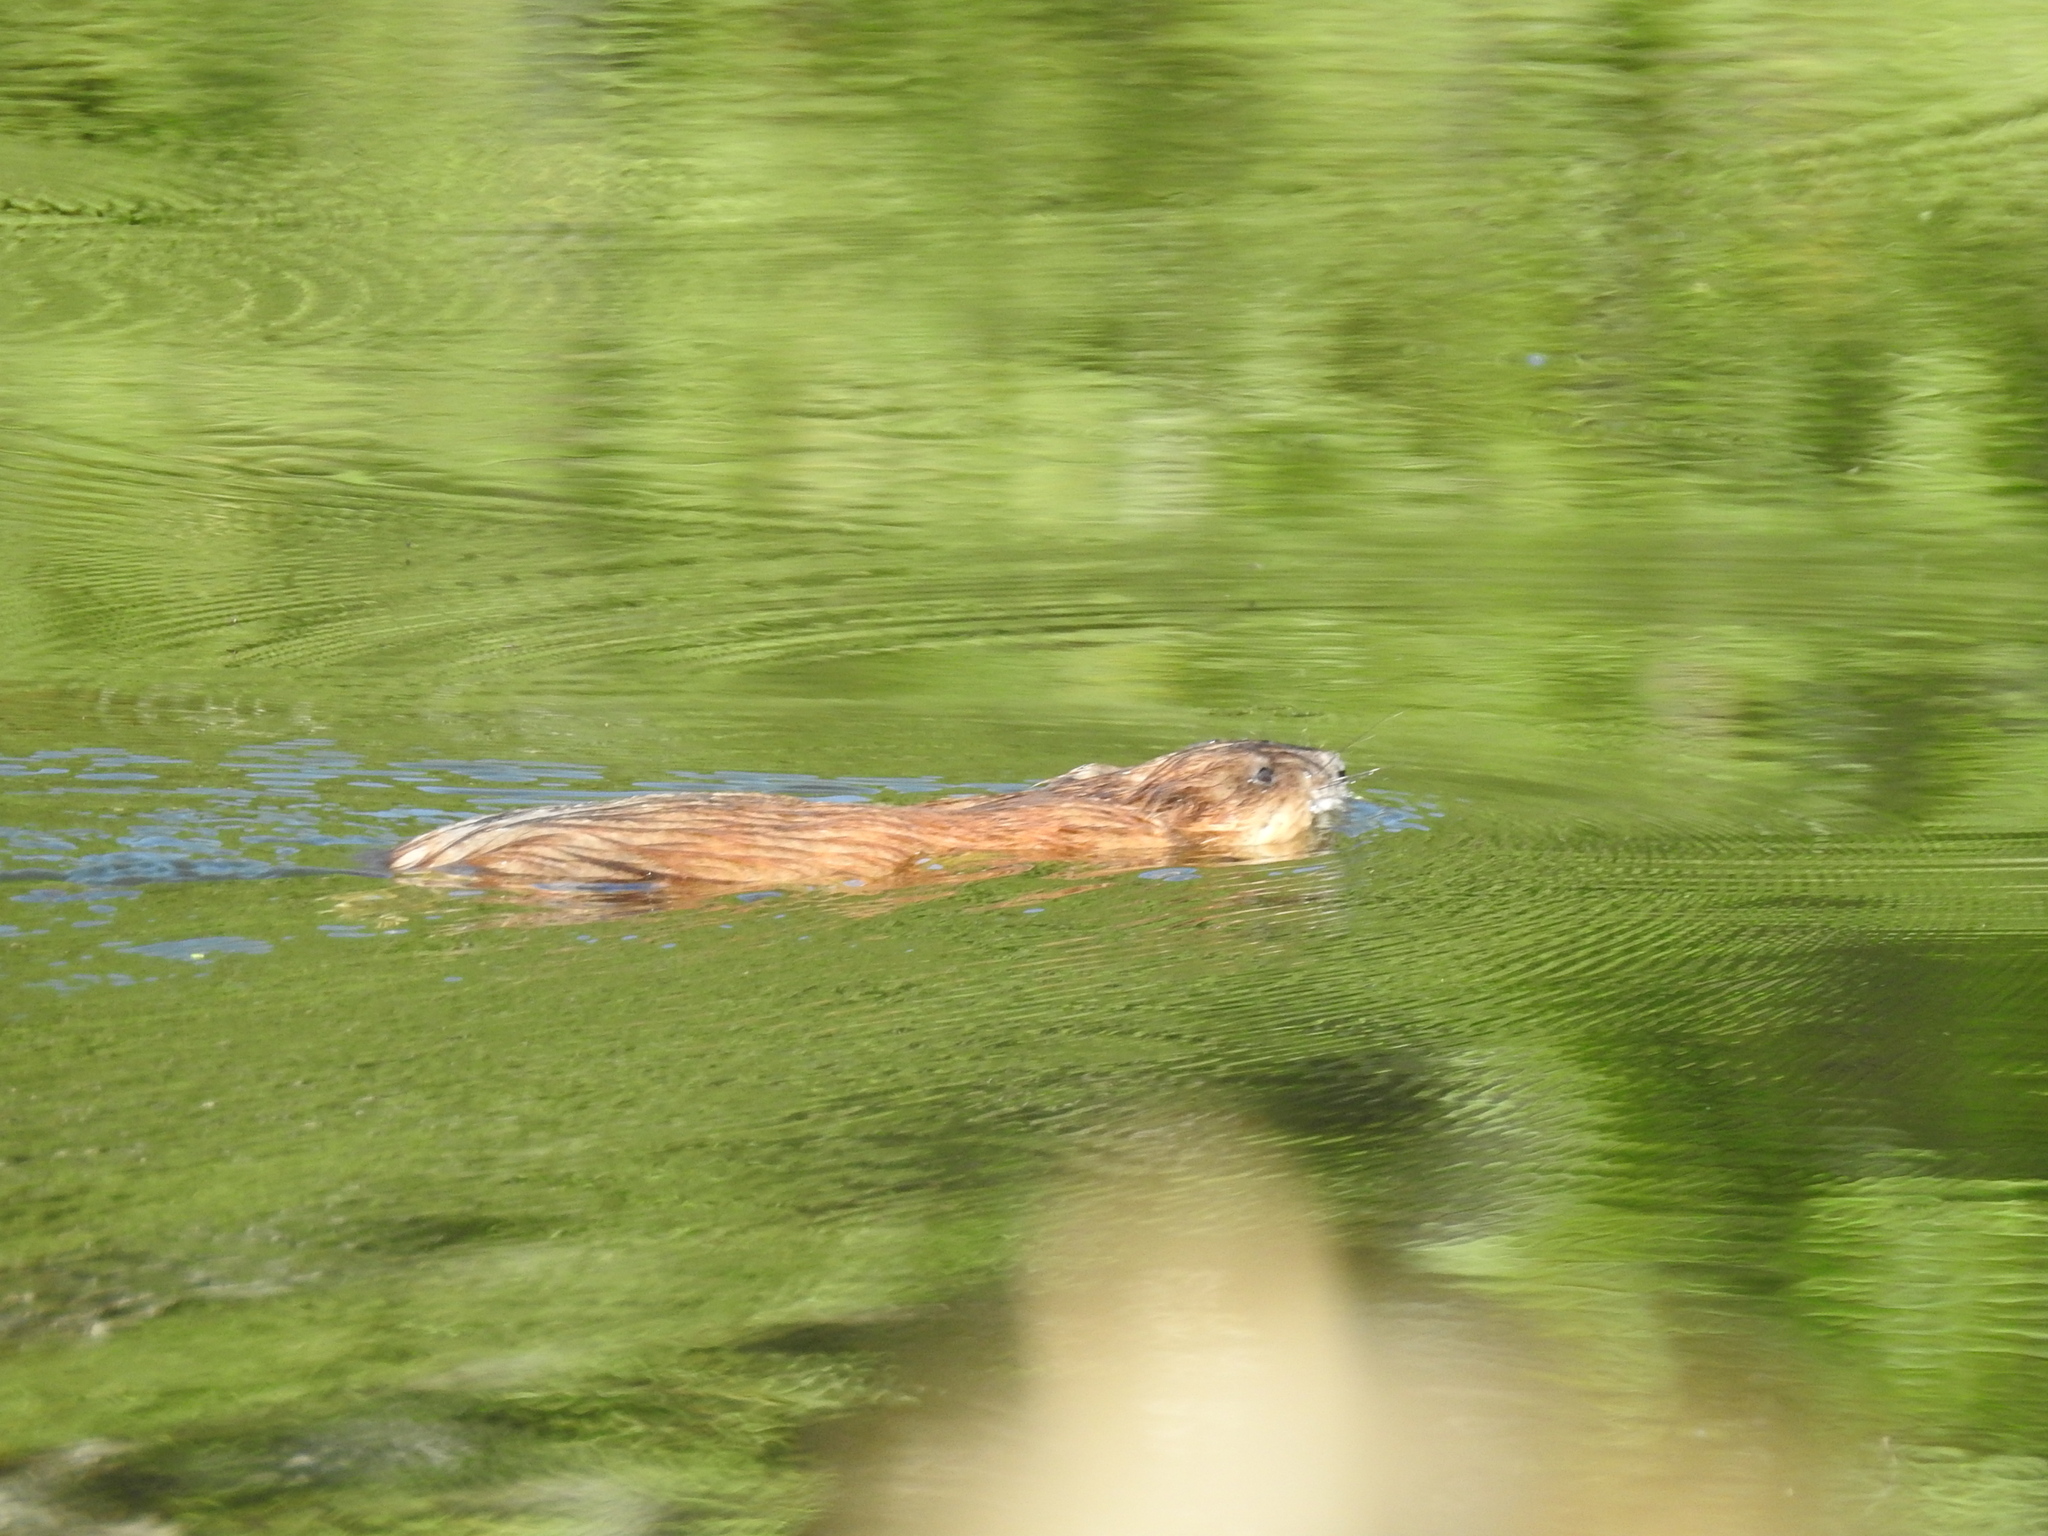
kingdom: Animalia
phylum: Chordata
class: Mammalia
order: Rodentia
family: Cricetidae
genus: Ondatra
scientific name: Ondatra zibethicus
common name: Muskrat
